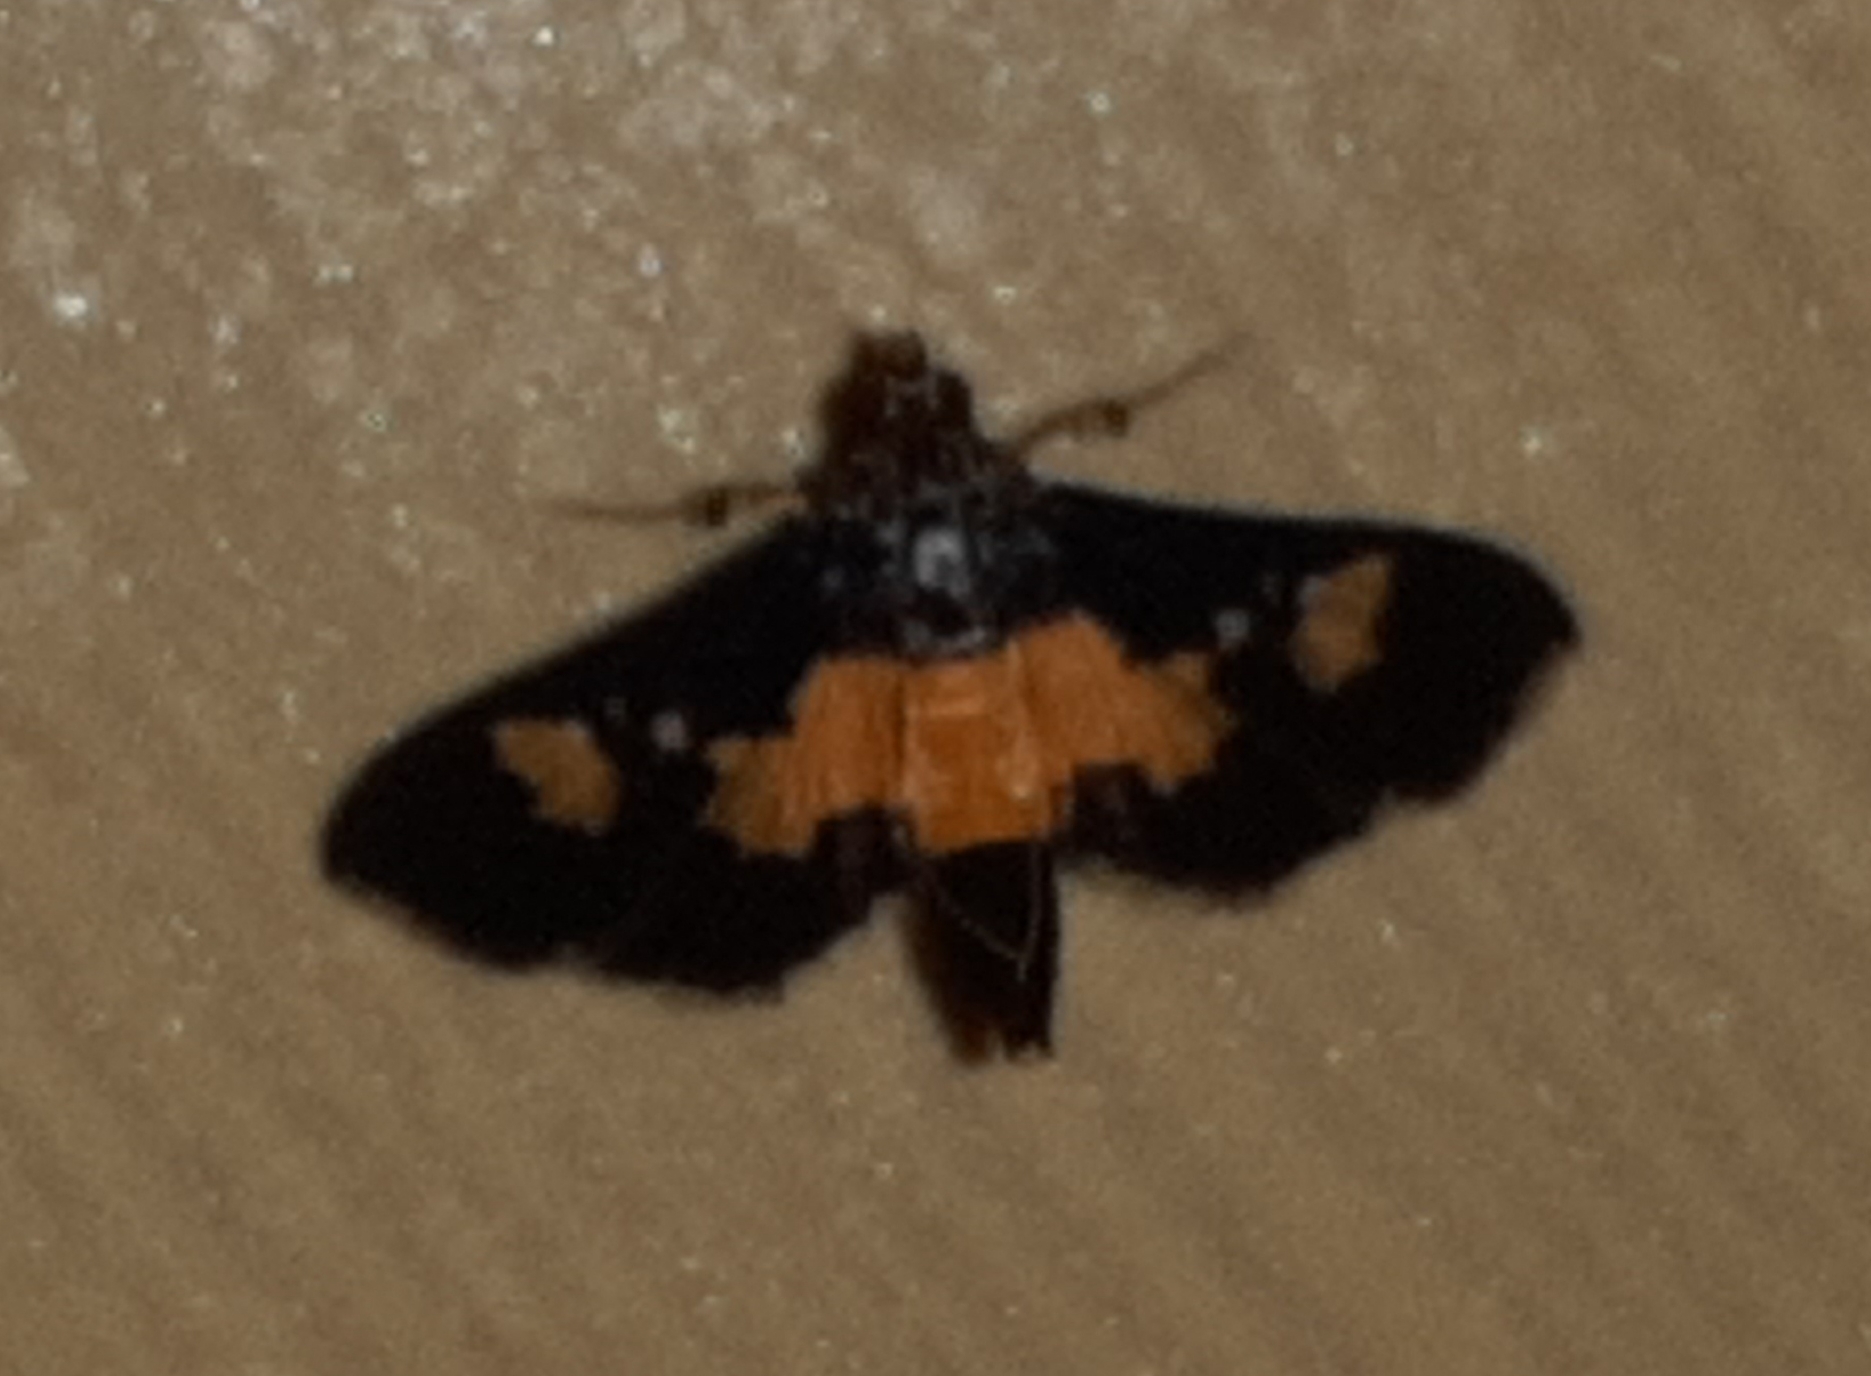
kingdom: Animalia
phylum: Arthropoda
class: Insecta
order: Lepidoptera
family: Crambidae
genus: Salbia
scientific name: Salbia zena
